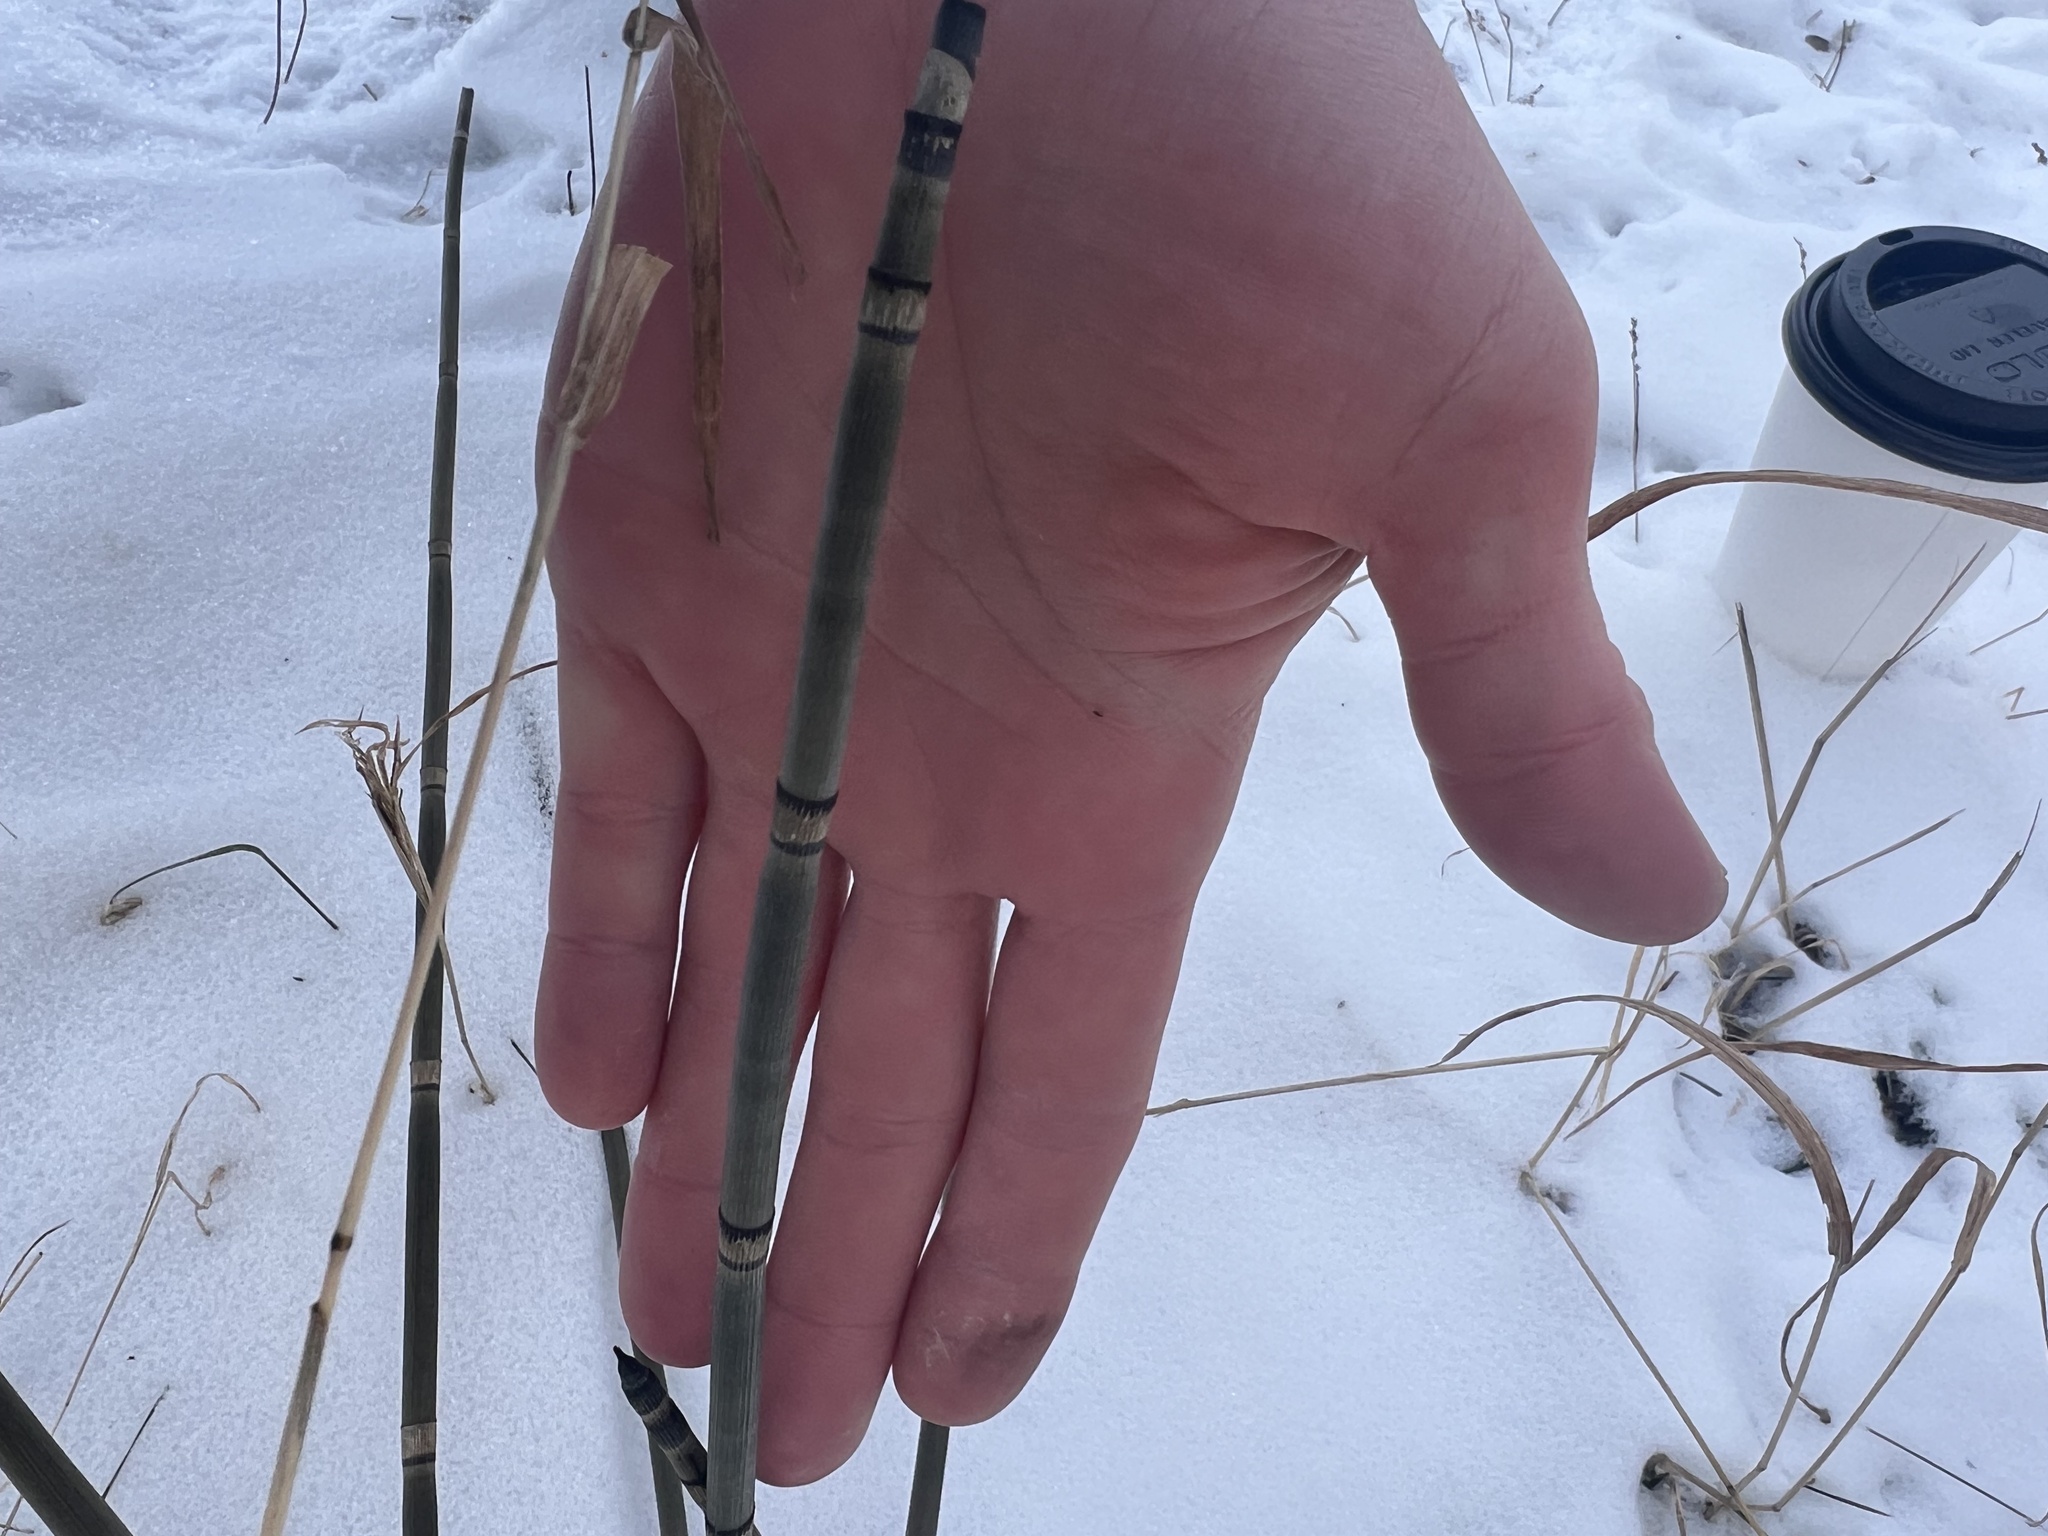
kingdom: Plantae
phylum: Tracheophyta
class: Polypodiopsida
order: Equisetales
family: Equisetaceae
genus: Equisetum
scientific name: Equisetum hyemale
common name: Rough horsetail
